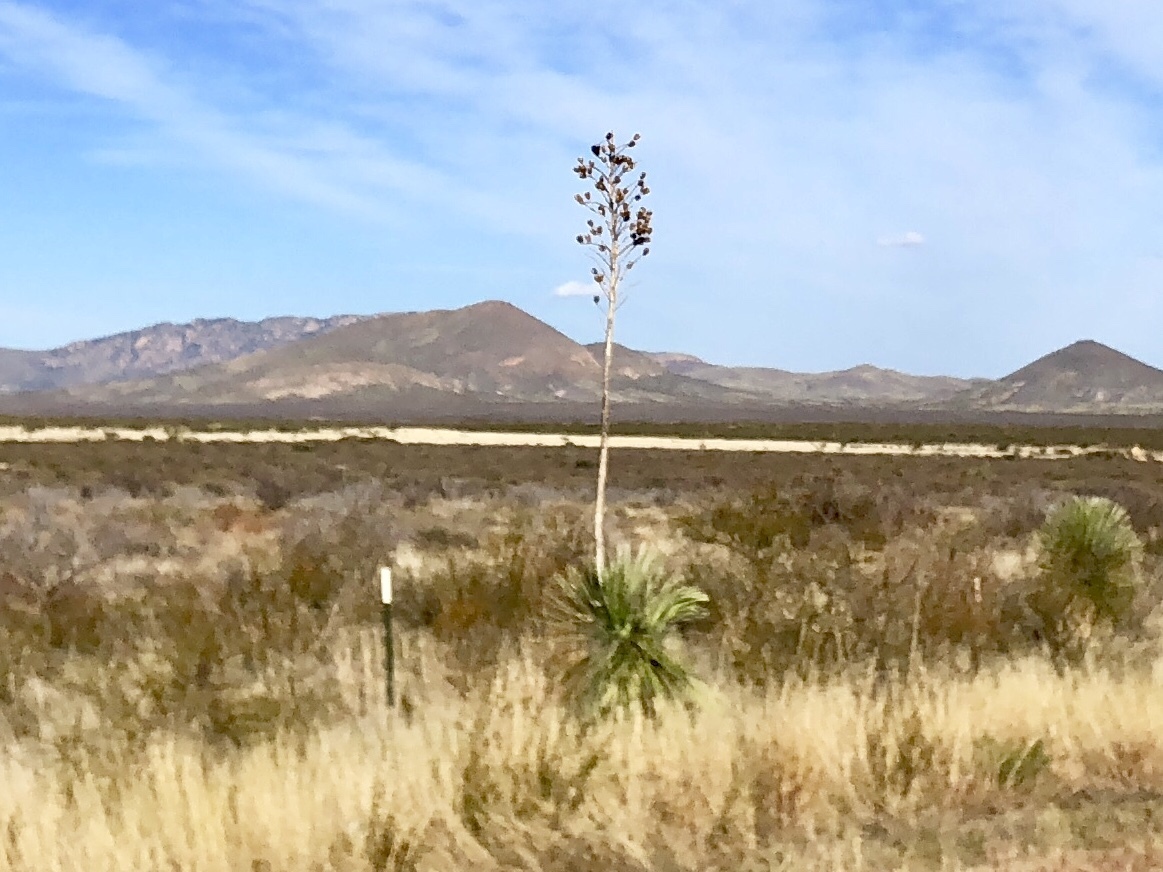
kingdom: Plantae
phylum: Tracheophyta
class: Liliopsida
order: Asparagales
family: Asparagaceae
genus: Yucca
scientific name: Yucca elata
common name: Palmella
